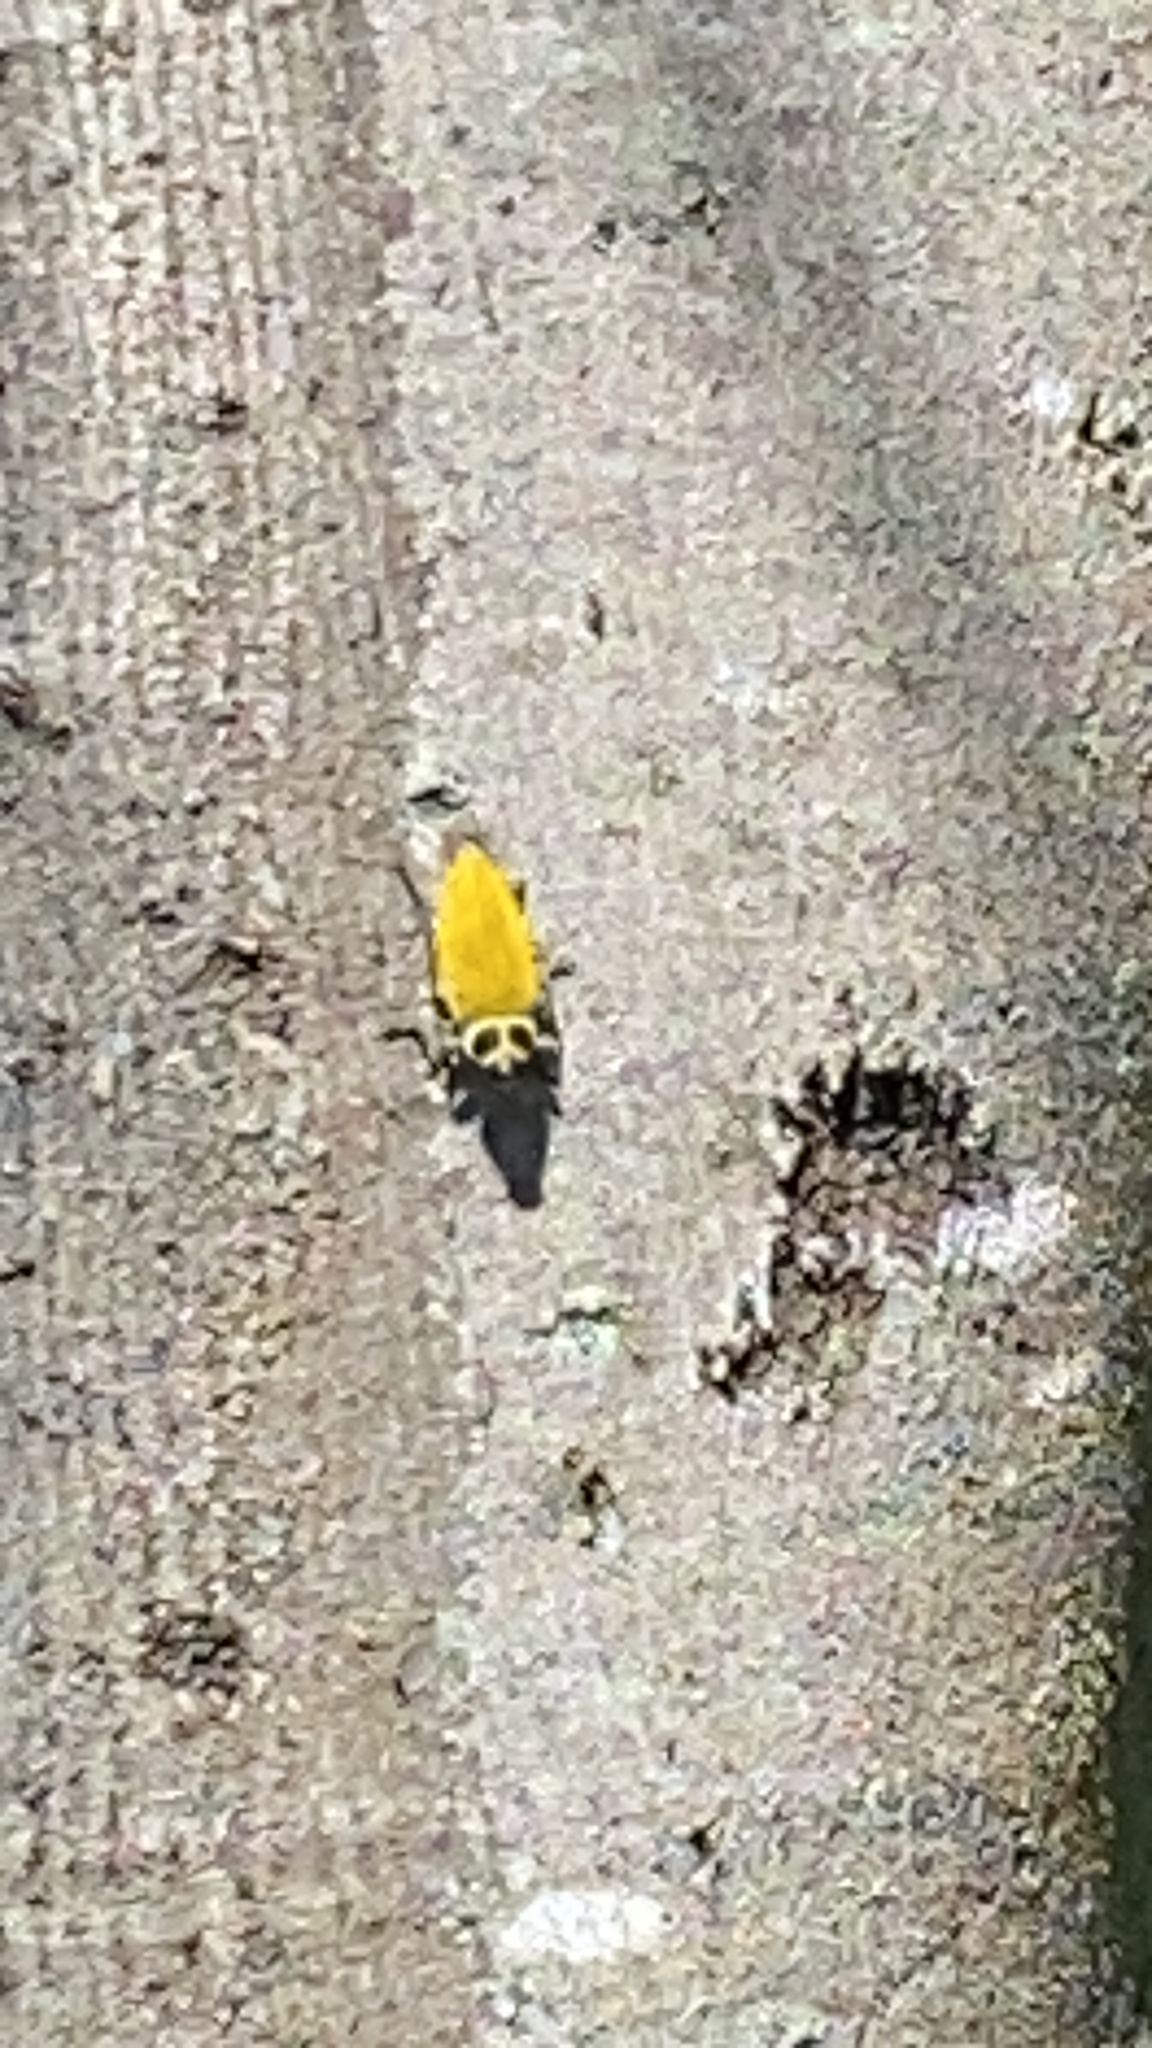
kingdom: Animalia
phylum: Arthropoda
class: Insecta
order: Coleoptera
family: Buprestidae
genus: Euchroma
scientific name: Euchroma giganteum
